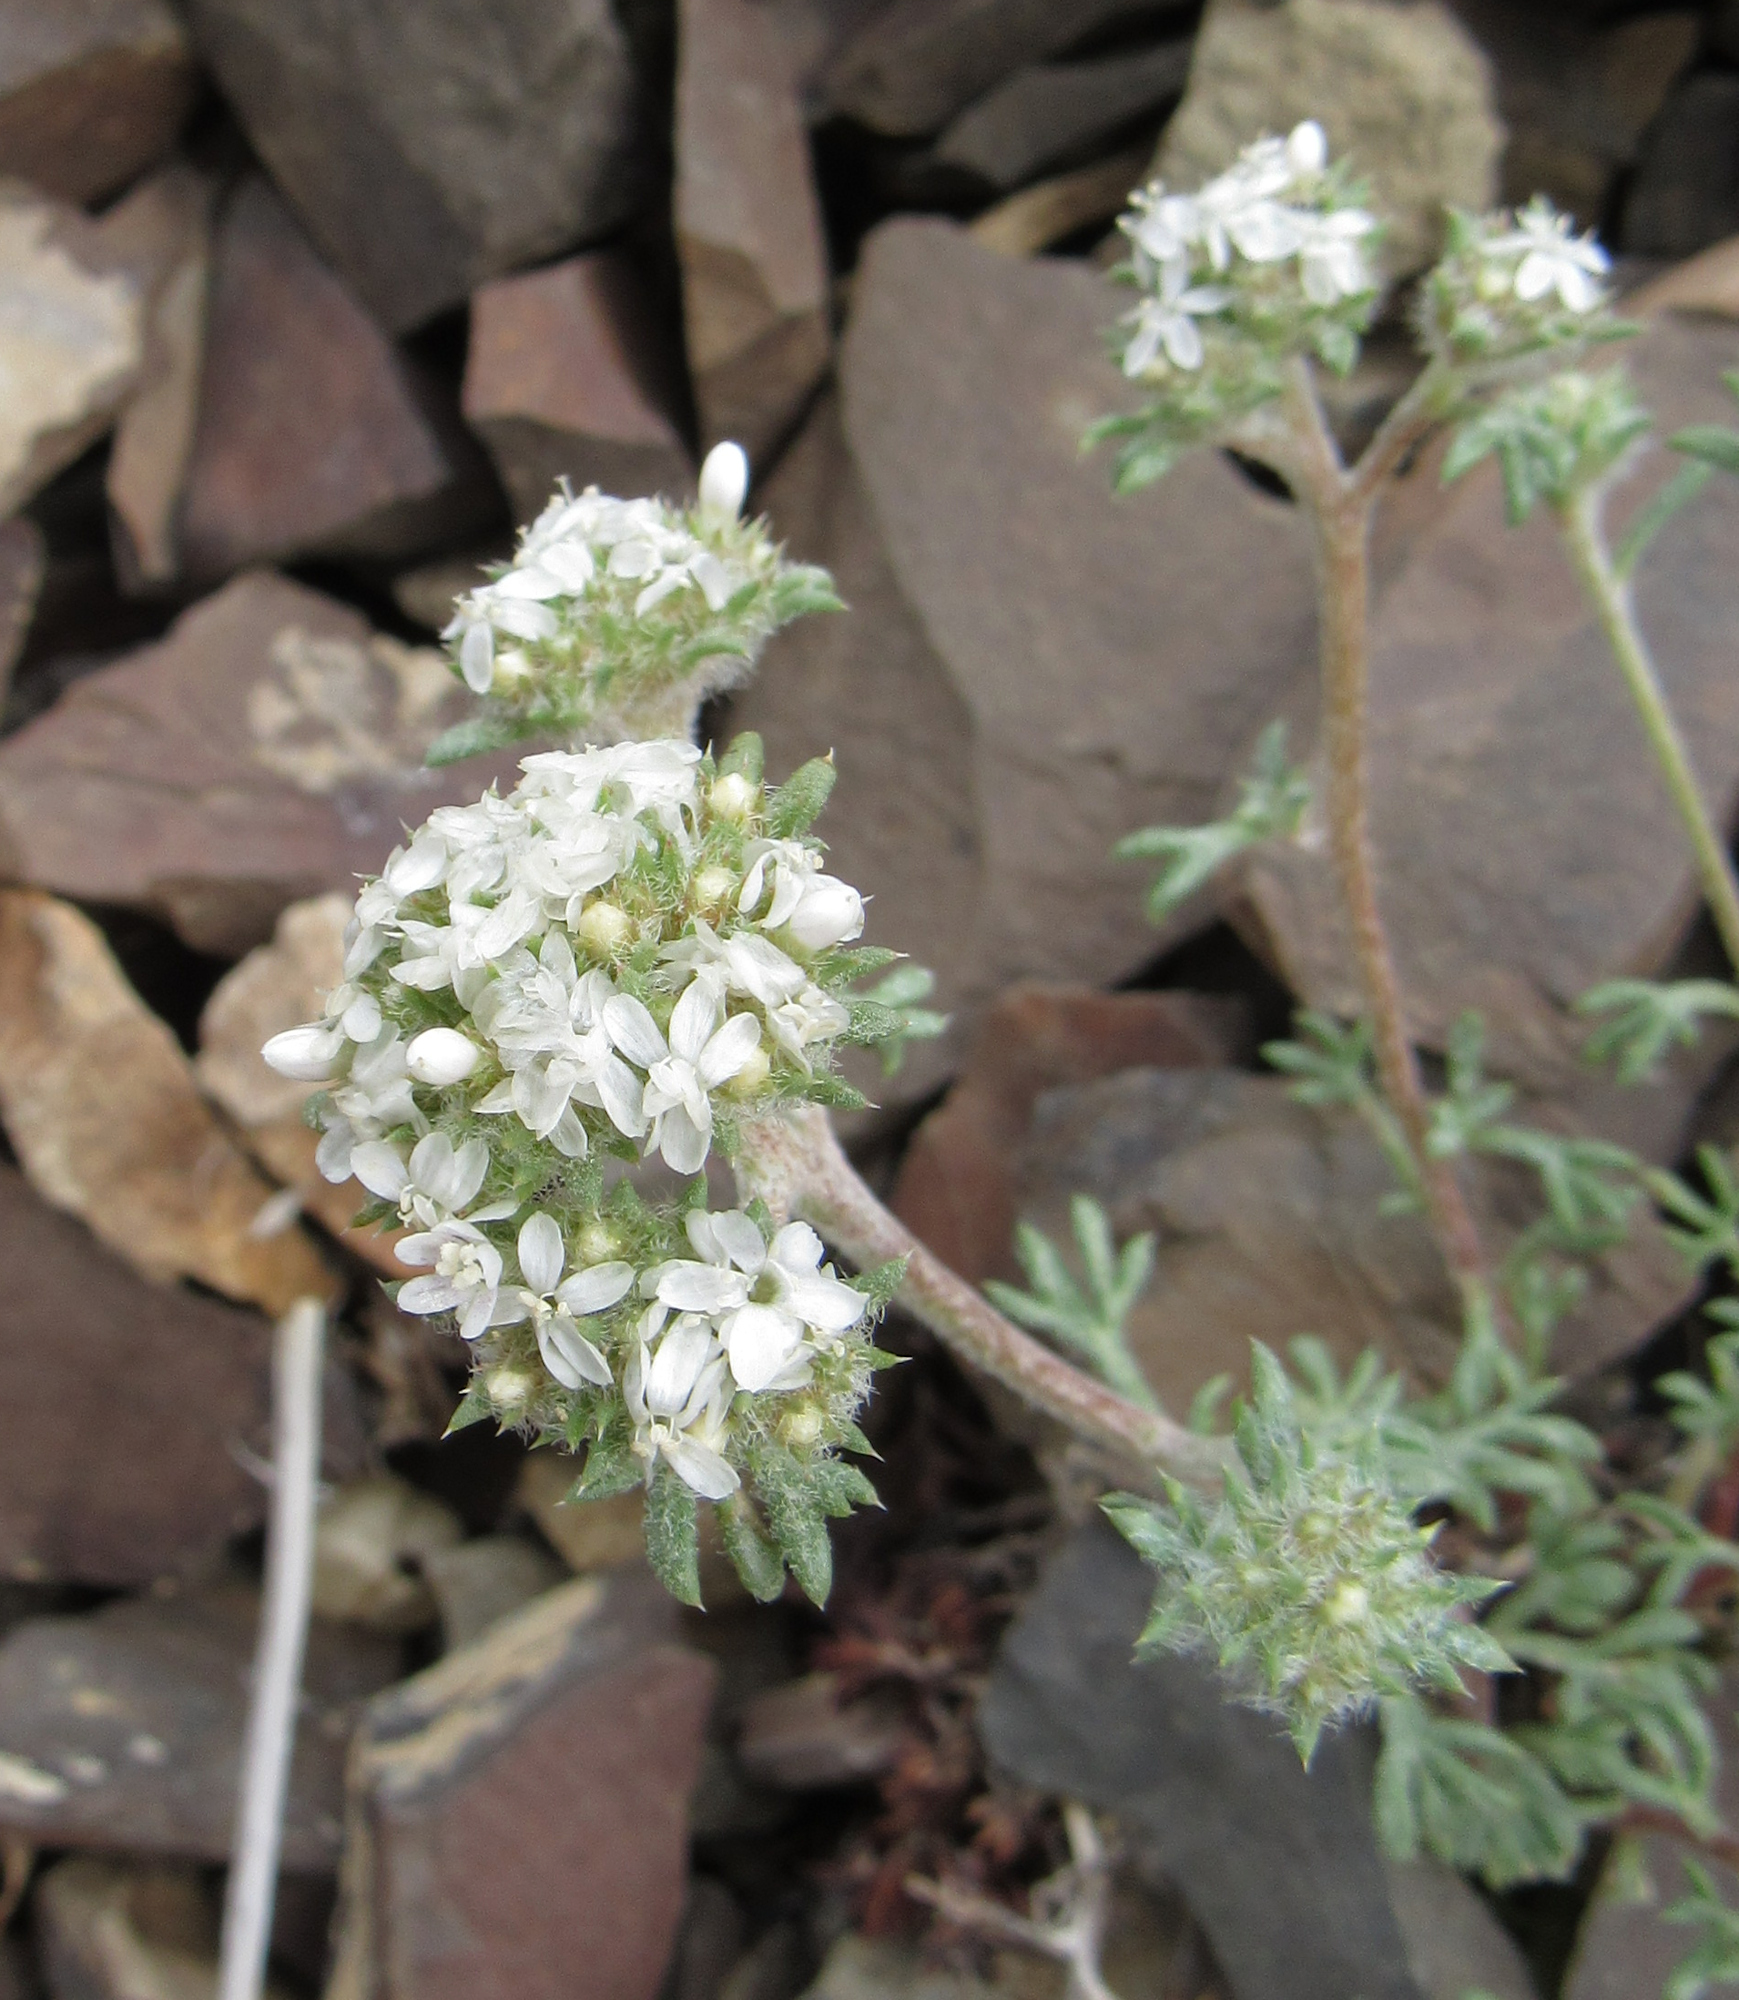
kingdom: Plantae
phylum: Tracheophyta
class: Magnoliopsida
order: Ericales
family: Polemoniaceae
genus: Ipomopsis
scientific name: Ipomopsis congesta
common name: Ball-head gilia
